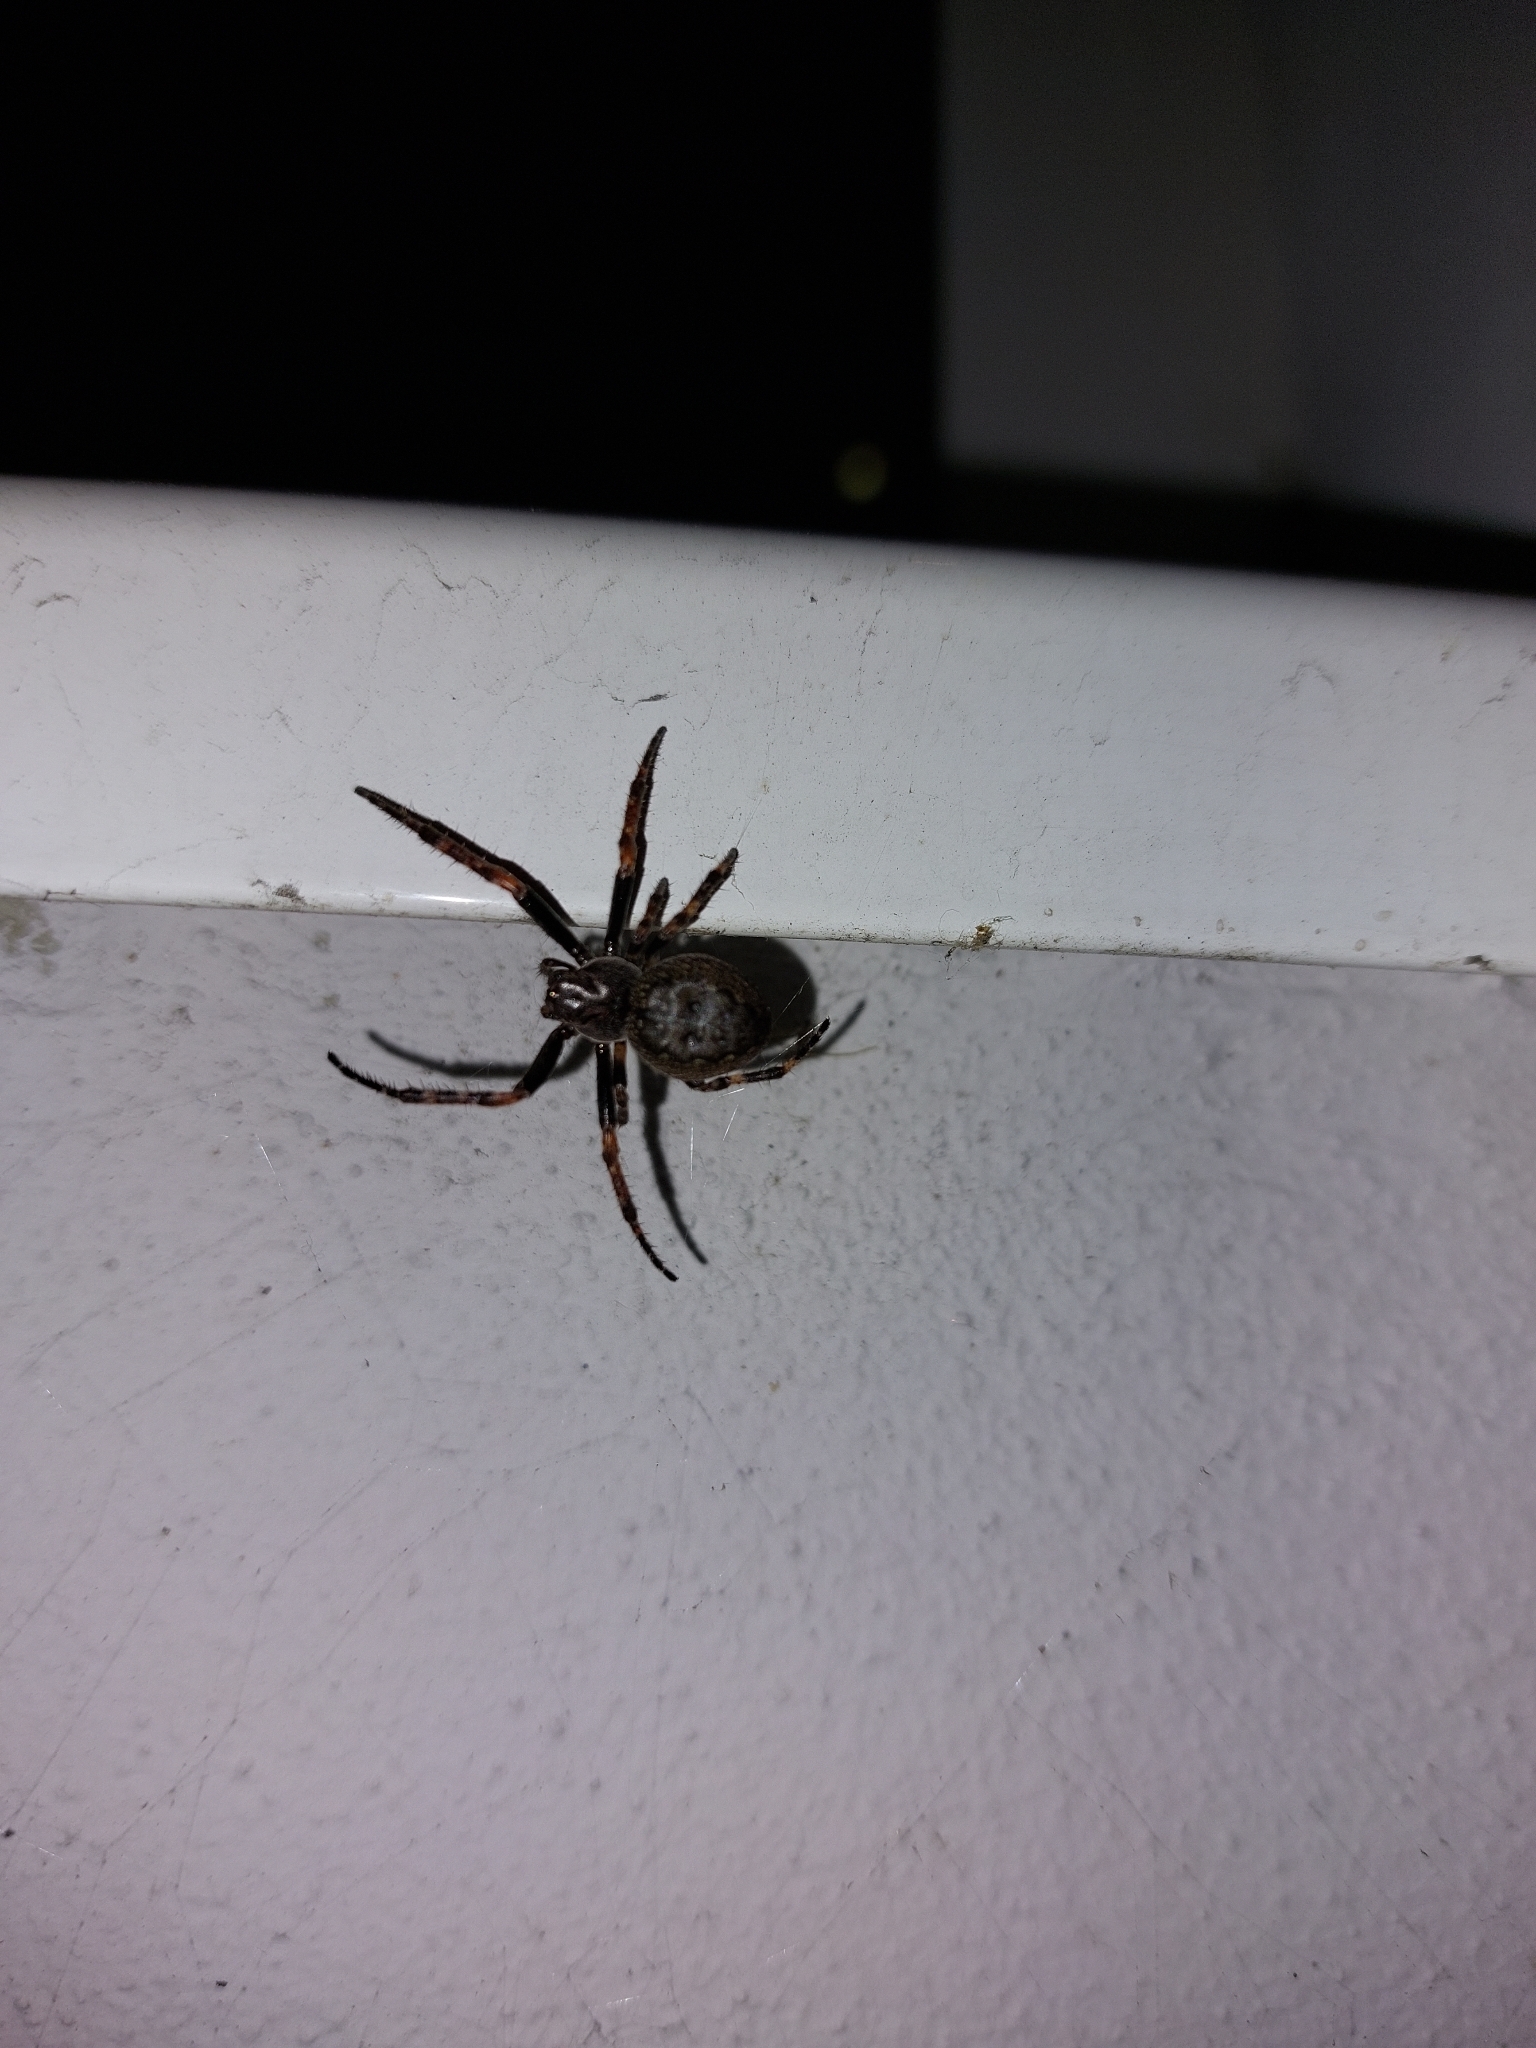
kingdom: Animalia
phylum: Arthropoda
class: Arachnida
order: Araneae
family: Araneidae
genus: Nuctenea
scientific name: Nuctenea umbratica
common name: Toad spider
